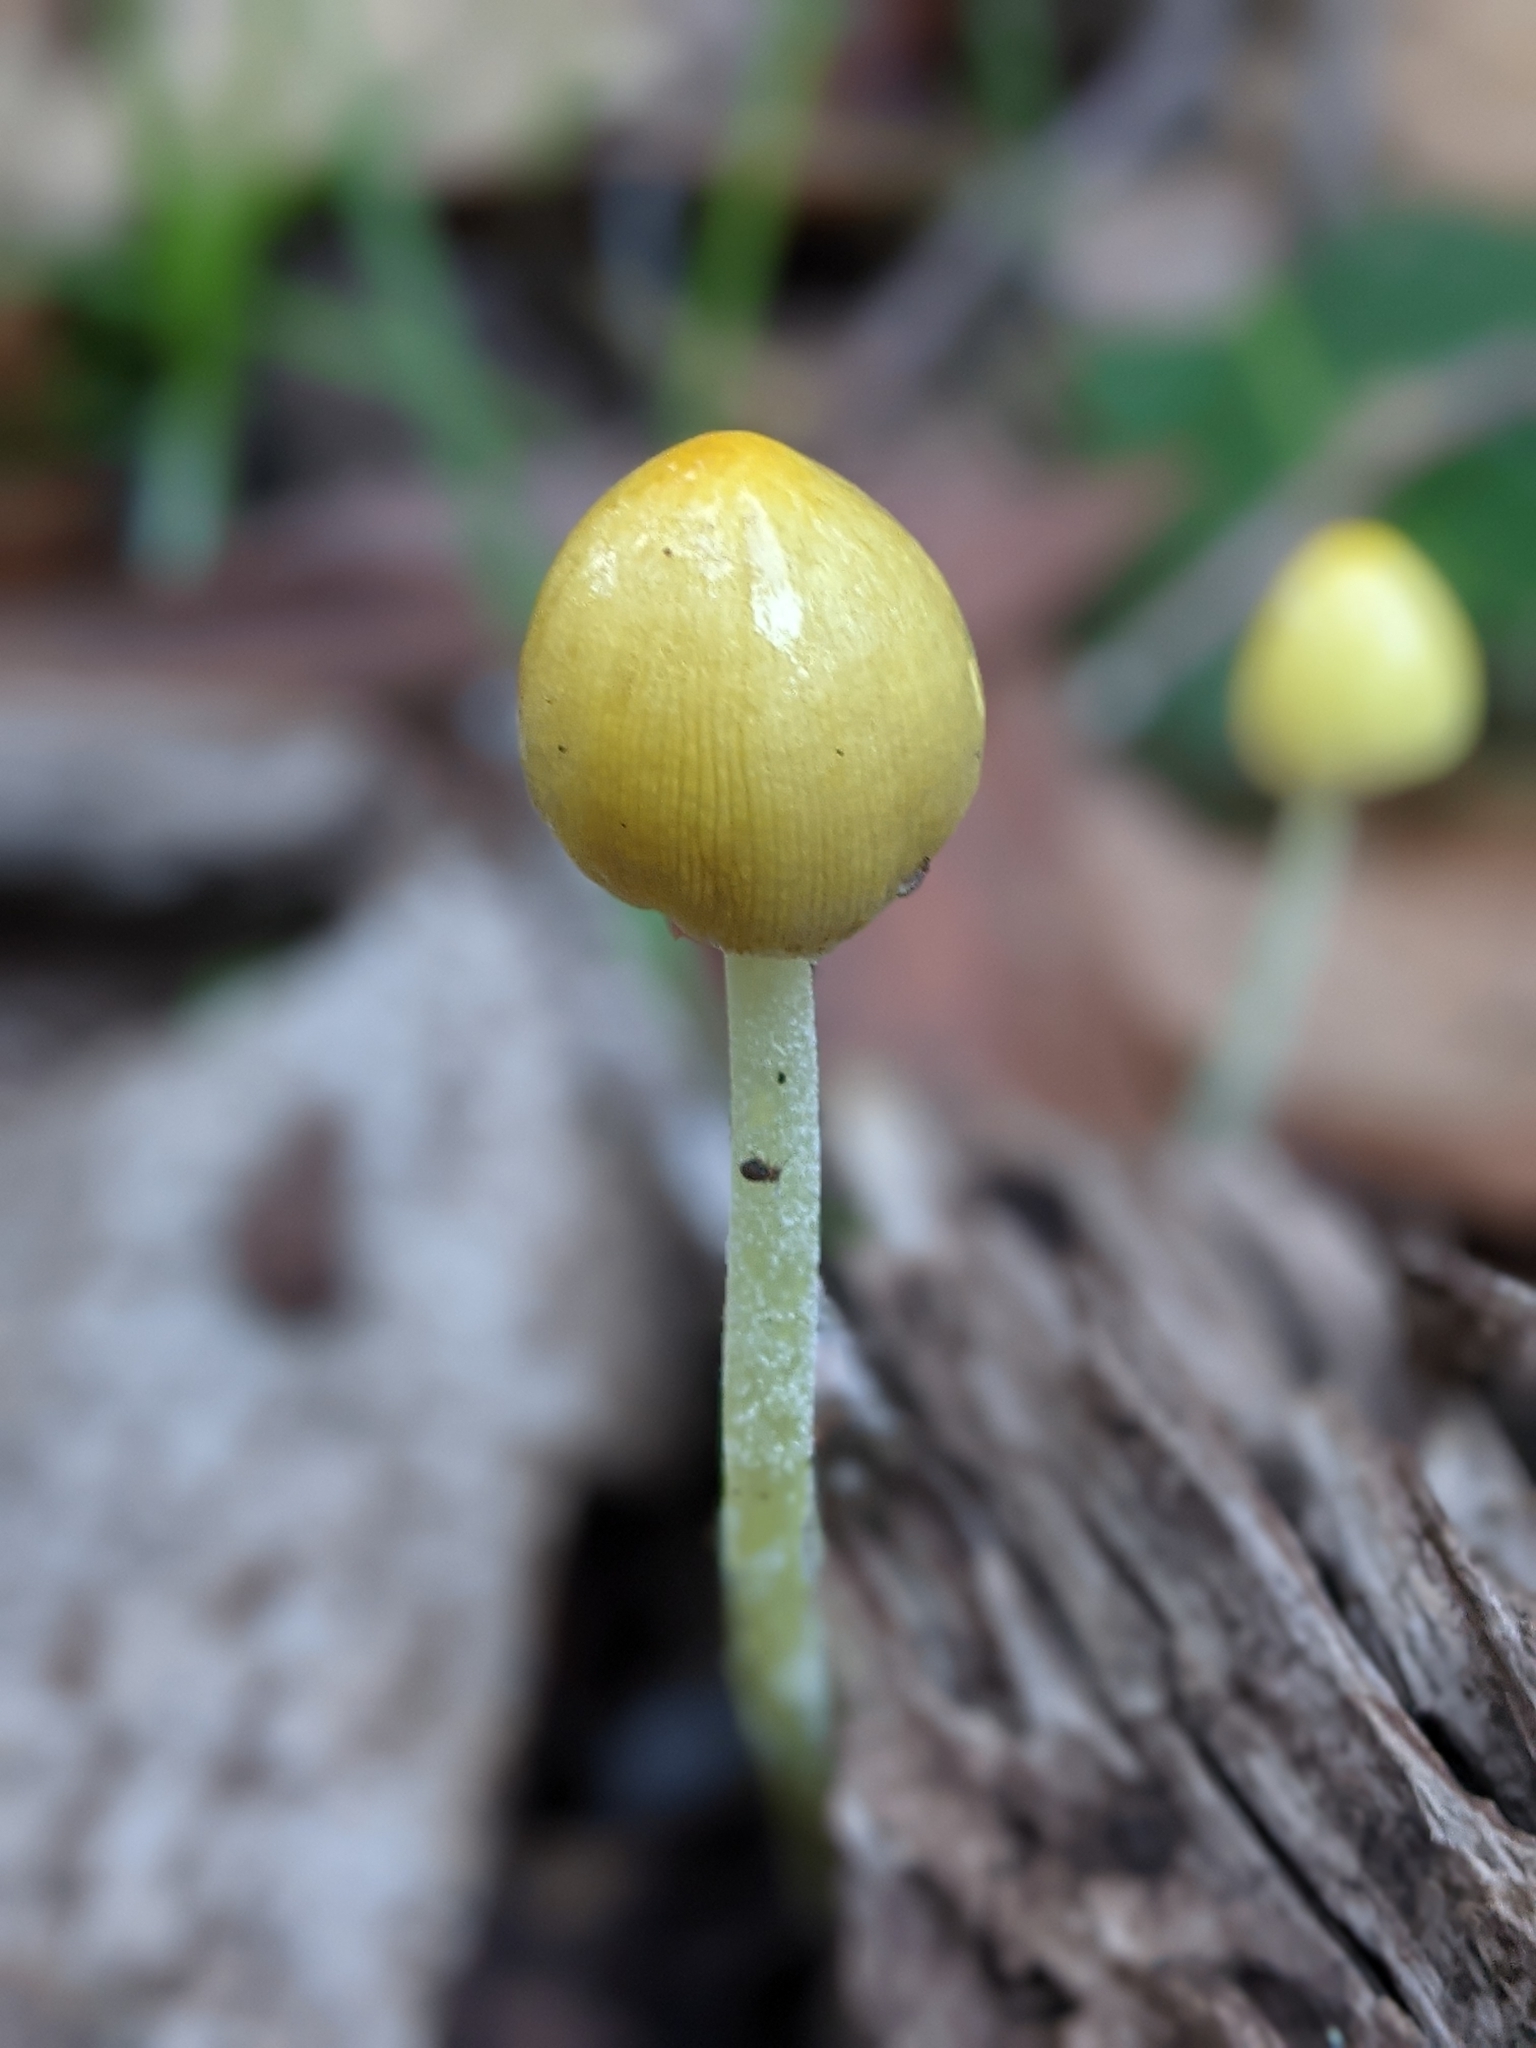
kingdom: Fungi
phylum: Basidiomycota
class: Agaricomycetes
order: Agaricales
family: Bolbitiaceae
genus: Bolbitius
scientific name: Bolbitius titubans
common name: Yellow fieldcap
